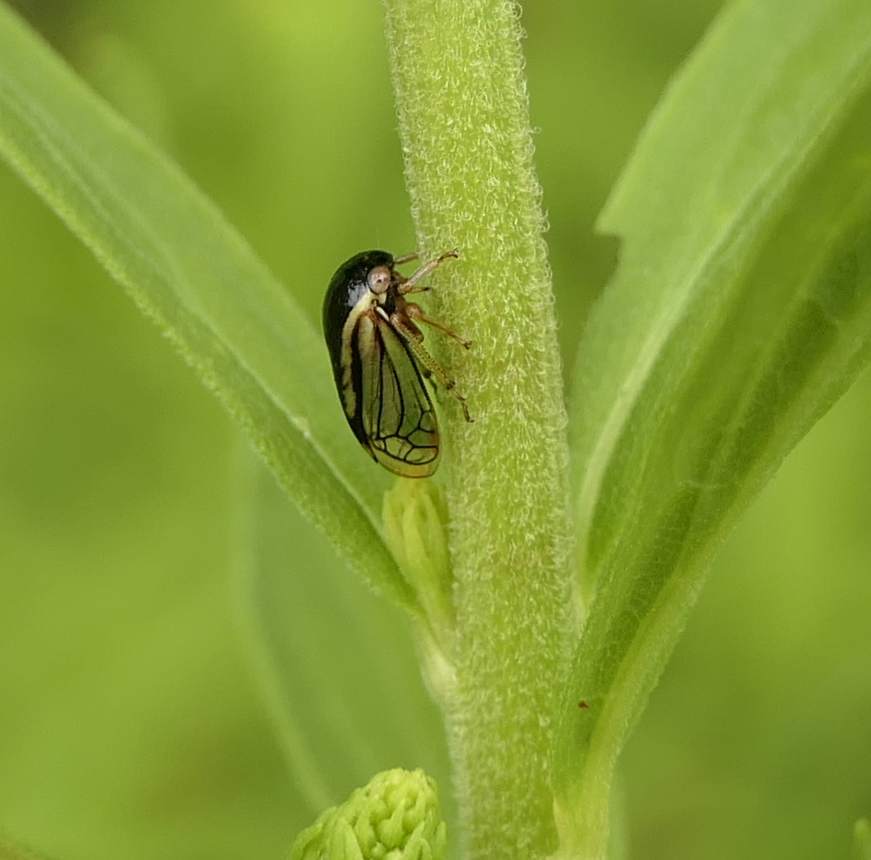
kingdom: Animalia
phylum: Arthropoda
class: Insecta
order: Hemiptera
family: Membracidae
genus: Acutalis
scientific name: Acutalis tartarea
